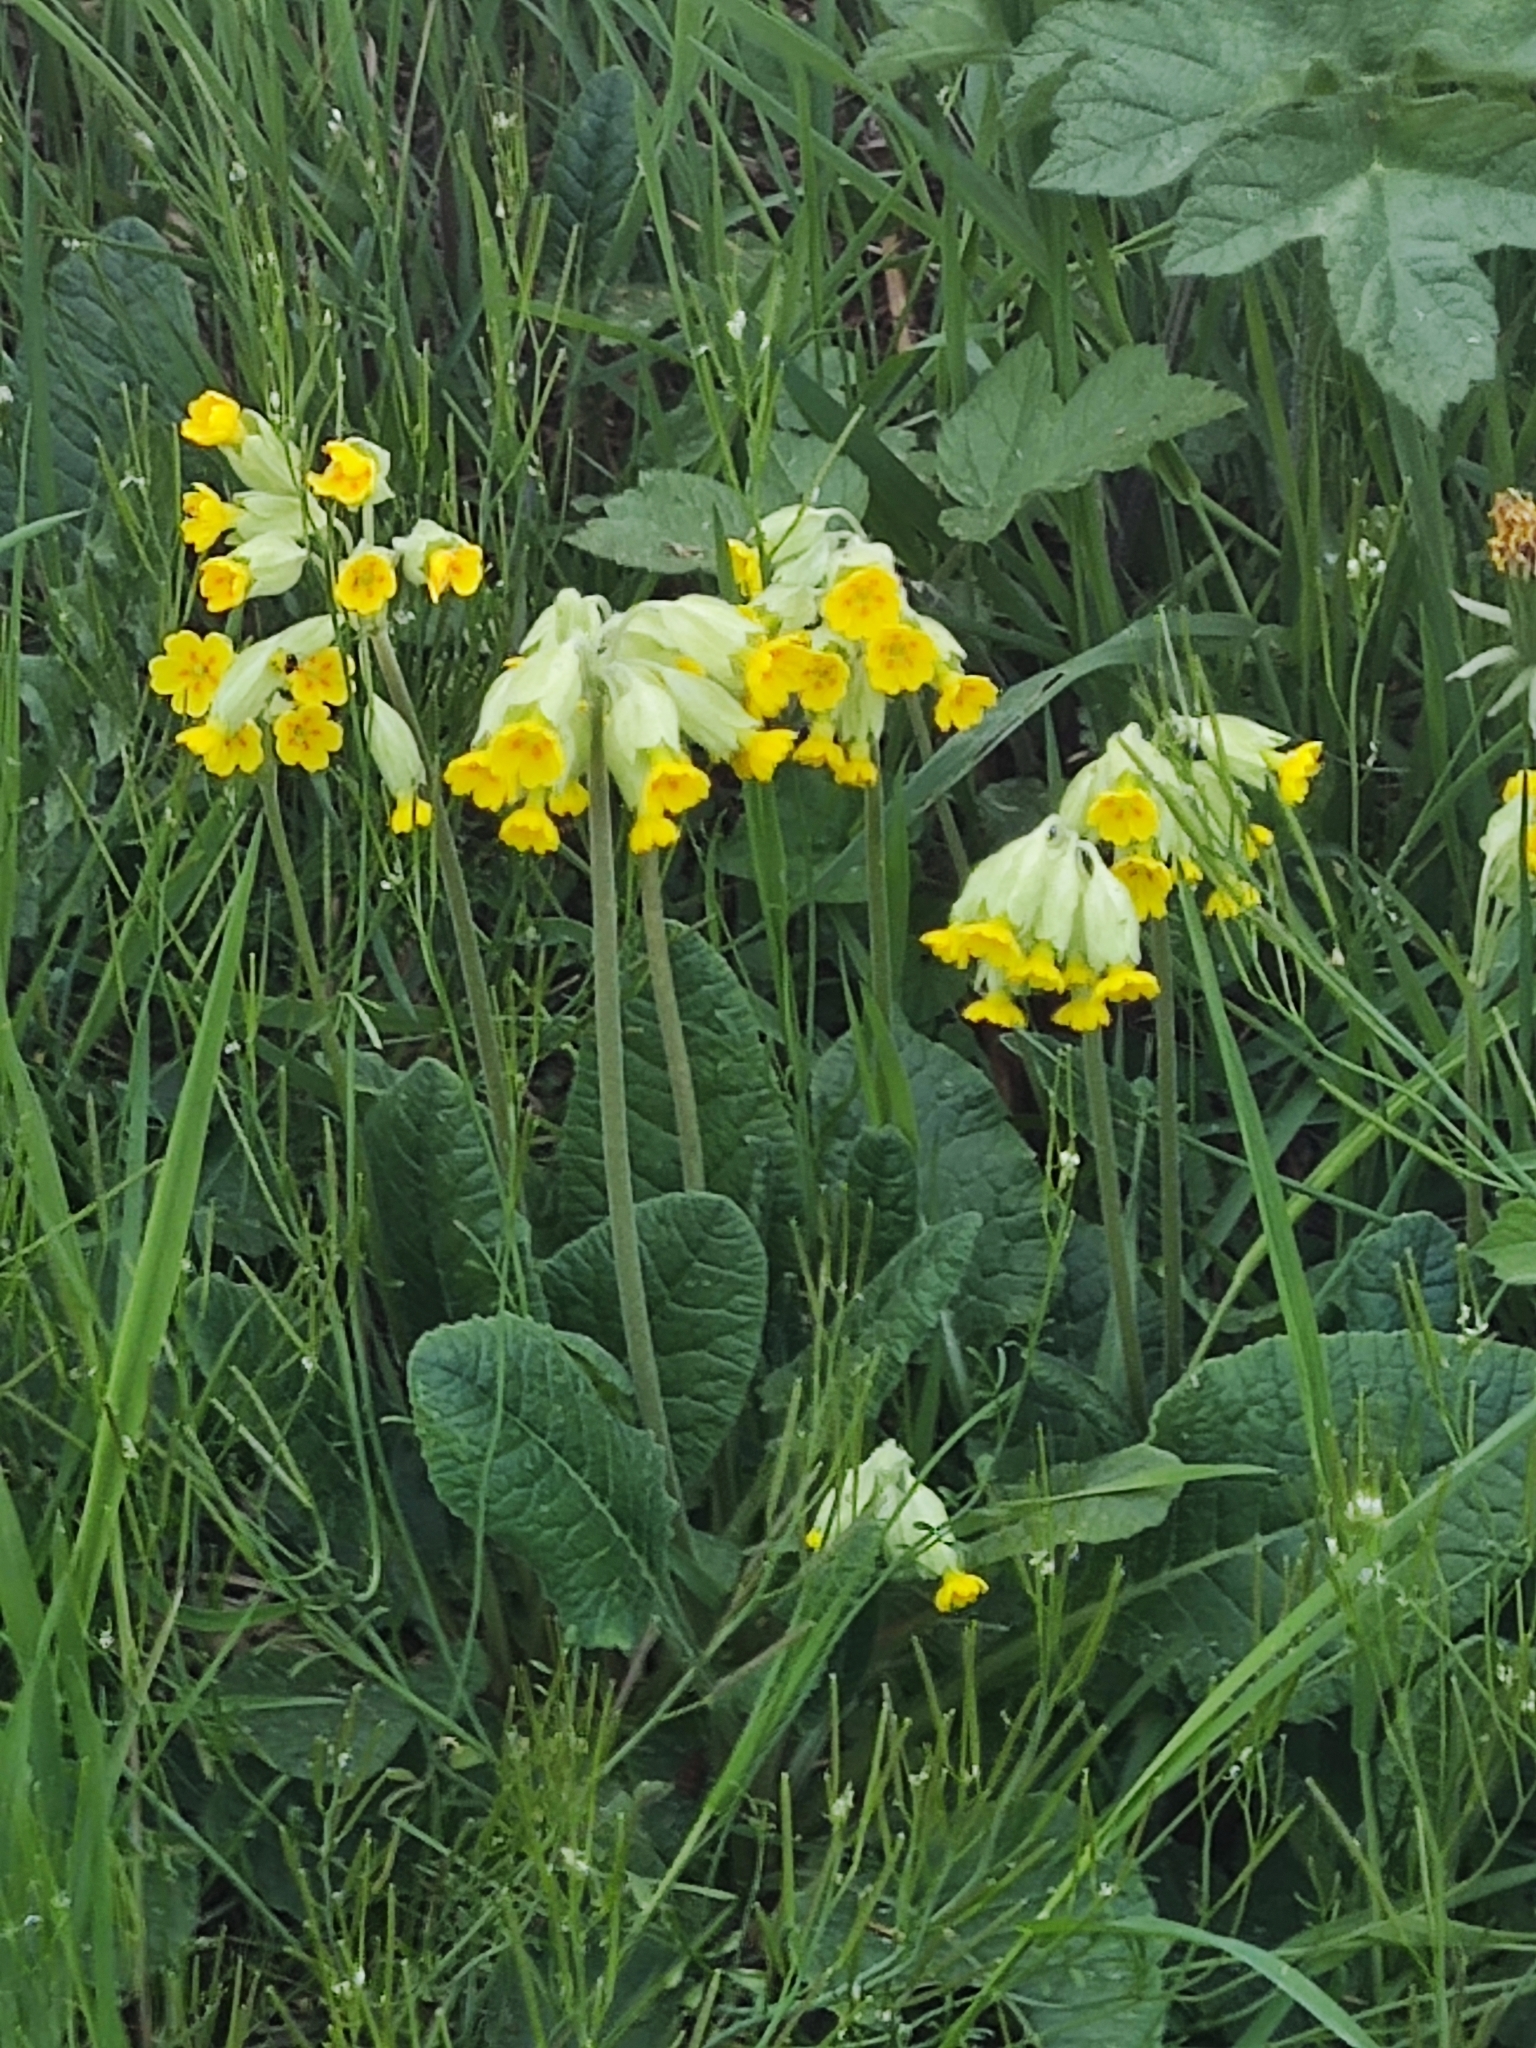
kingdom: Plantae
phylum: Tracheophyta
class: Magnoliopsida
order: Ericales
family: Primulaceae
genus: Primula
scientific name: Primula veris
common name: Cowslip
